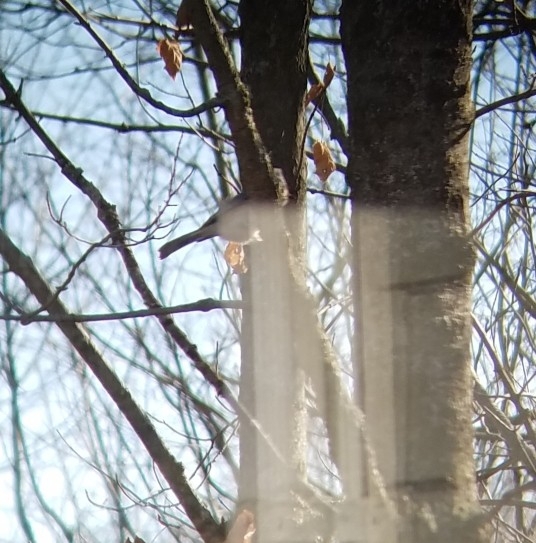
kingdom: Animalia
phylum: Chordata
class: Aves
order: Passeriformes
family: Paridae
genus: Baeolophus
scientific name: Baeolophus bicolor
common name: Tufted titmouse
